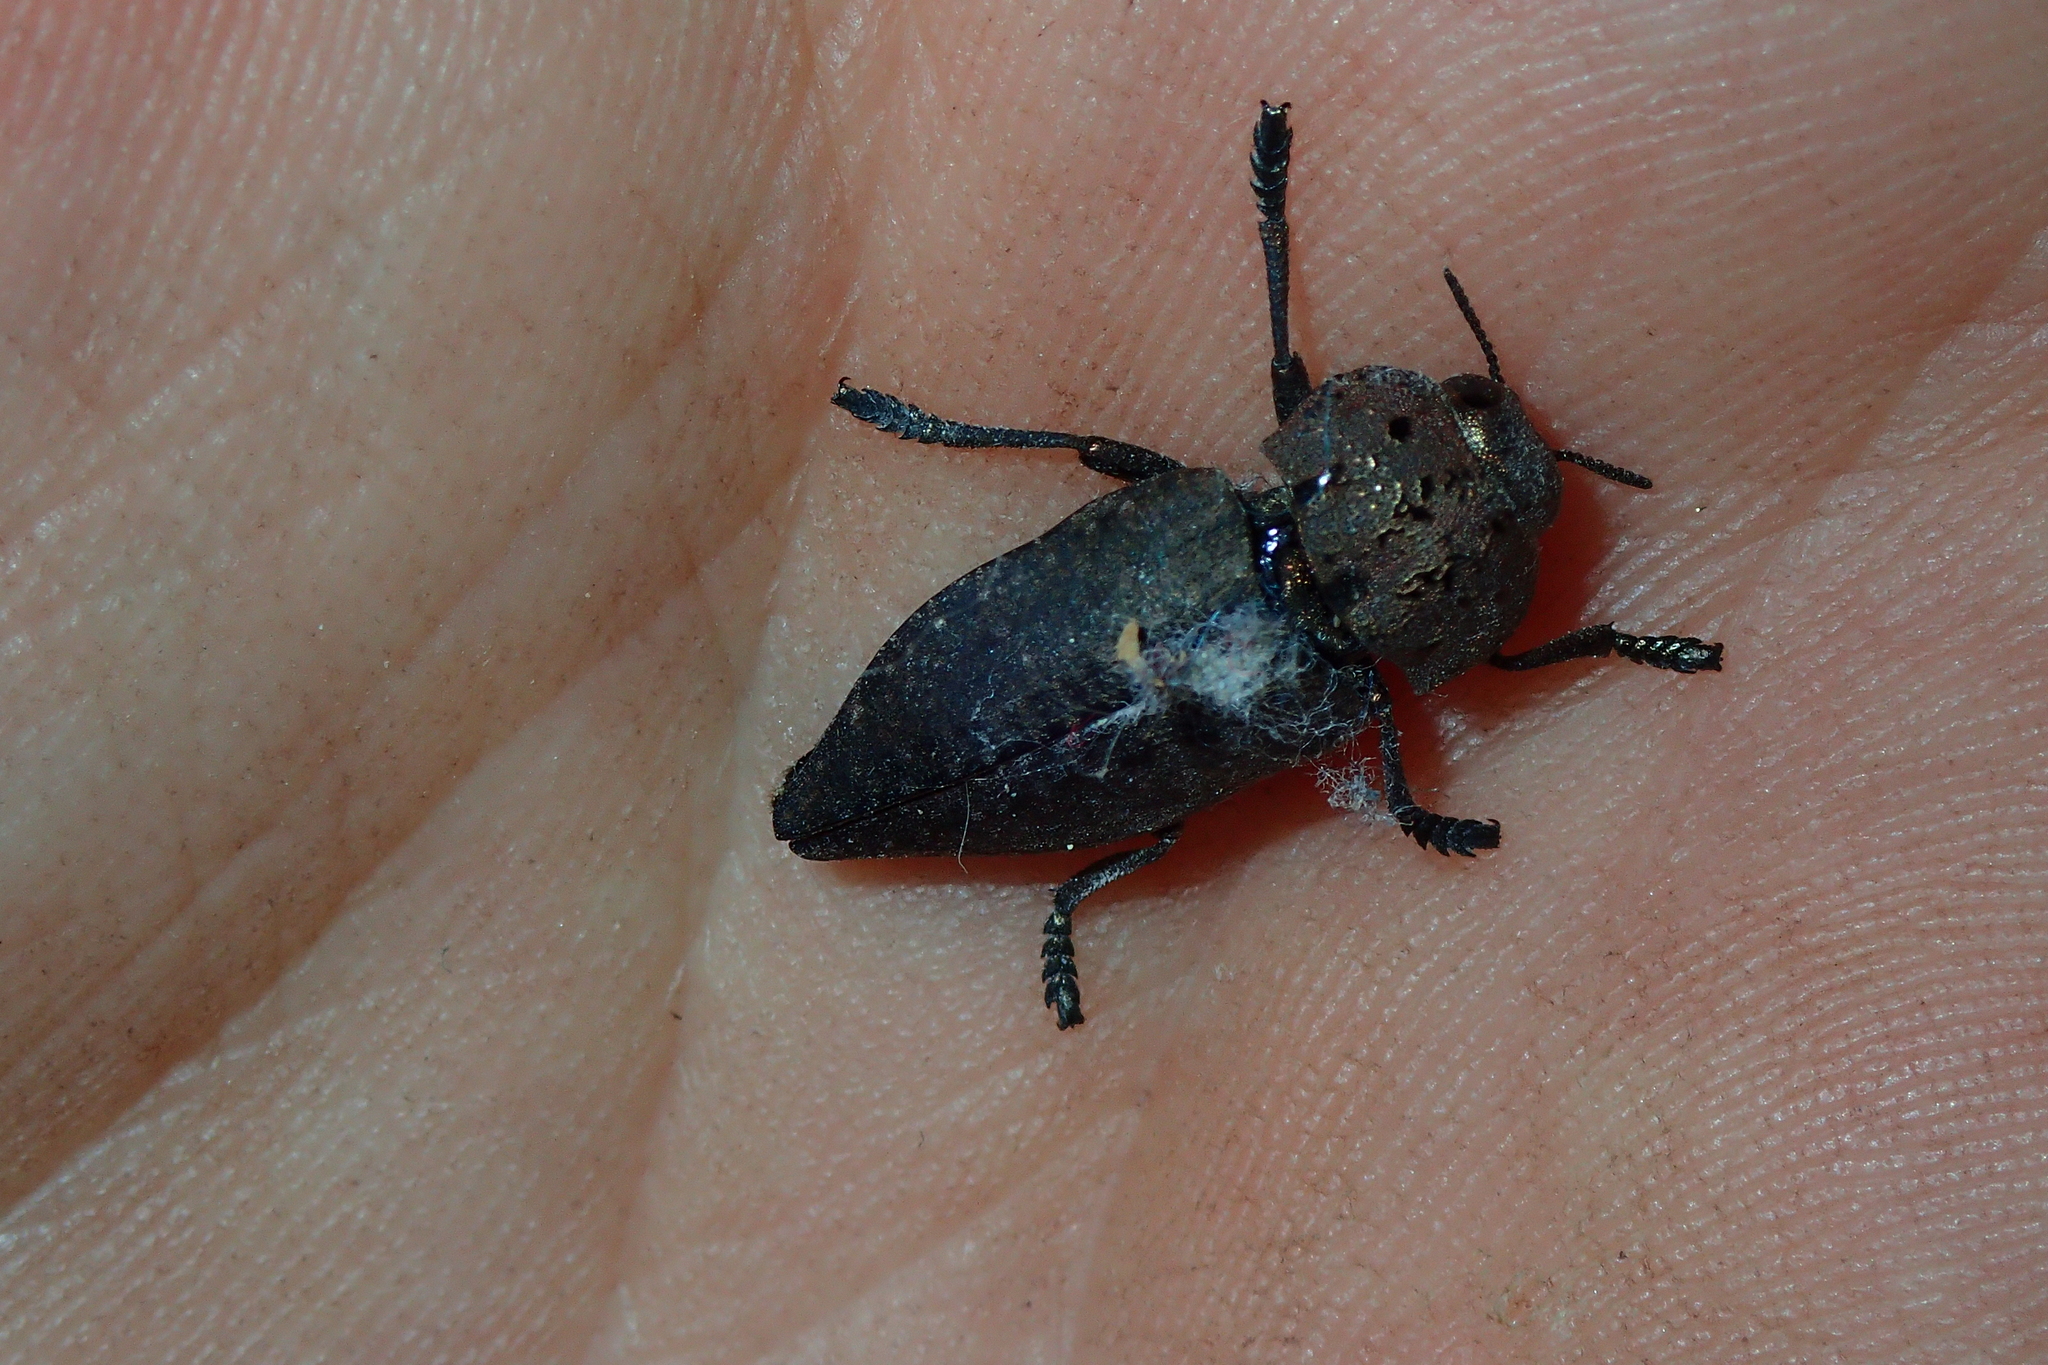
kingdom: Animalia
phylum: Arthropoda
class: Insecta
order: Coleoptera
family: Buprestidae
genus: Capnodis
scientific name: Capnodis tenebricosa
